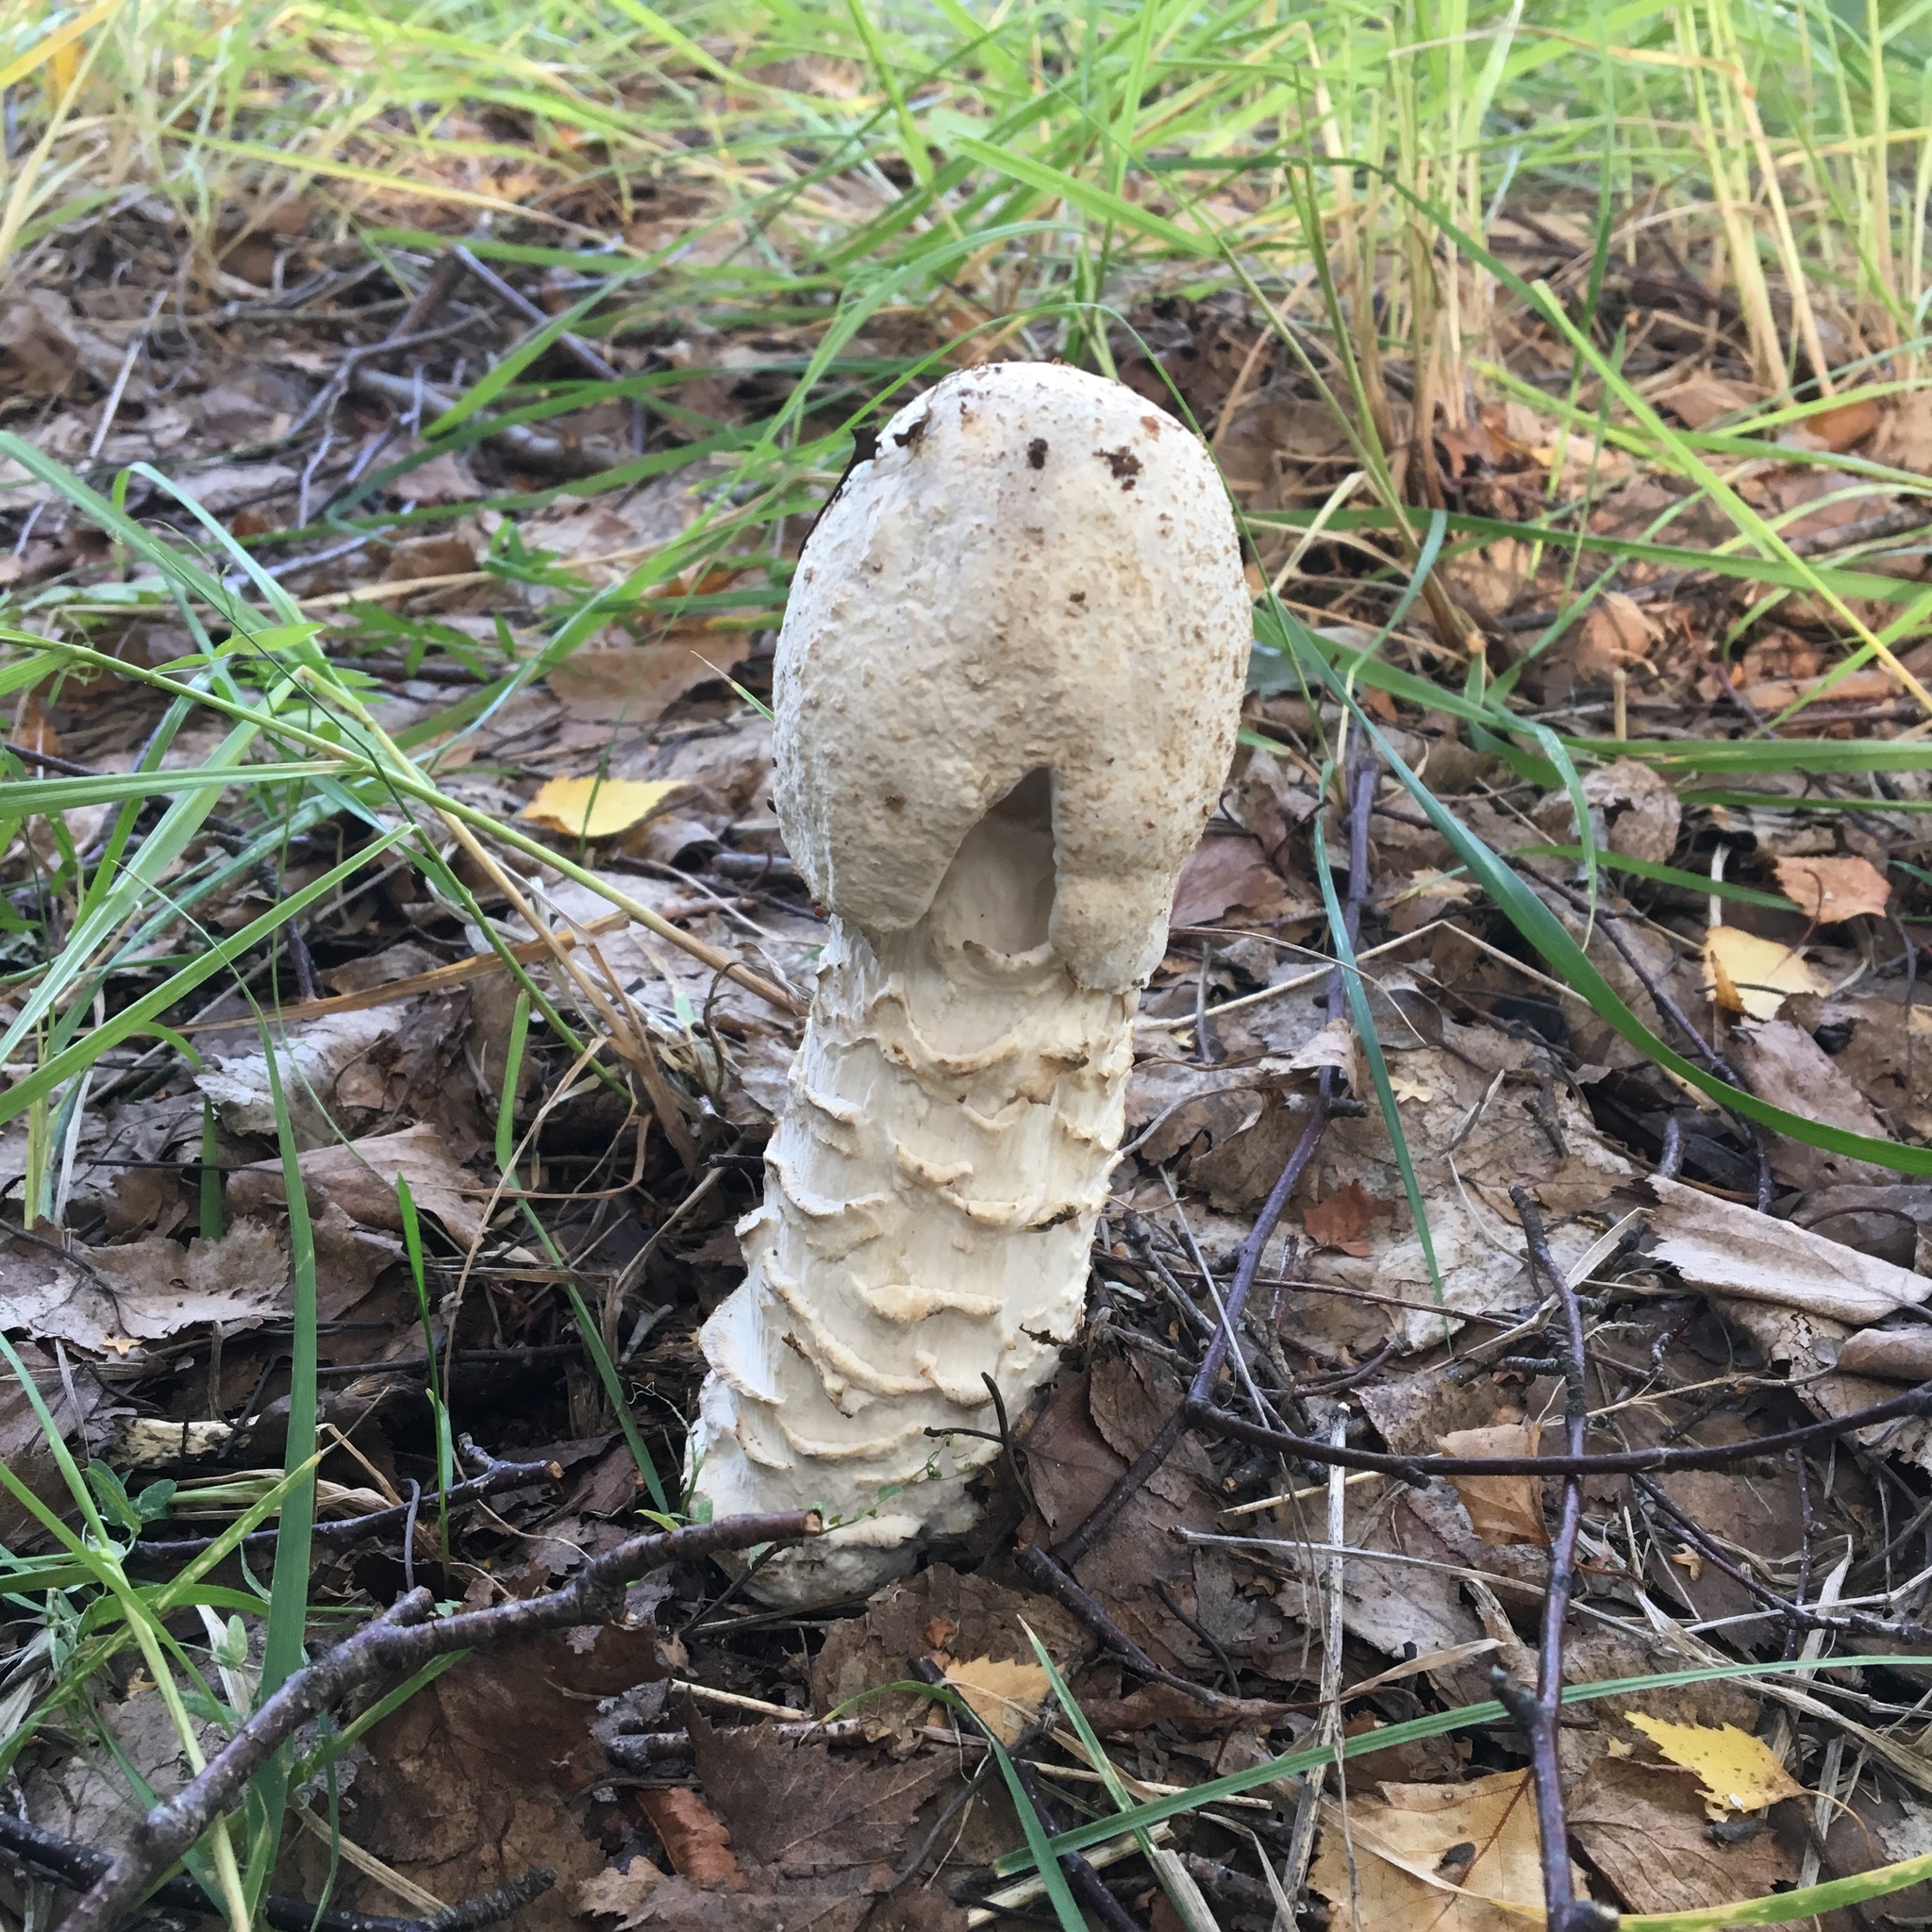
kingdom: Fungi
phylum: Ascomycota
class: Sordariomycetes
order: Hypocreales
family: Hypocreaceae
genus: Hypomyces
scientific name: Hypomyces hyalinus
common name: Amanita mold
